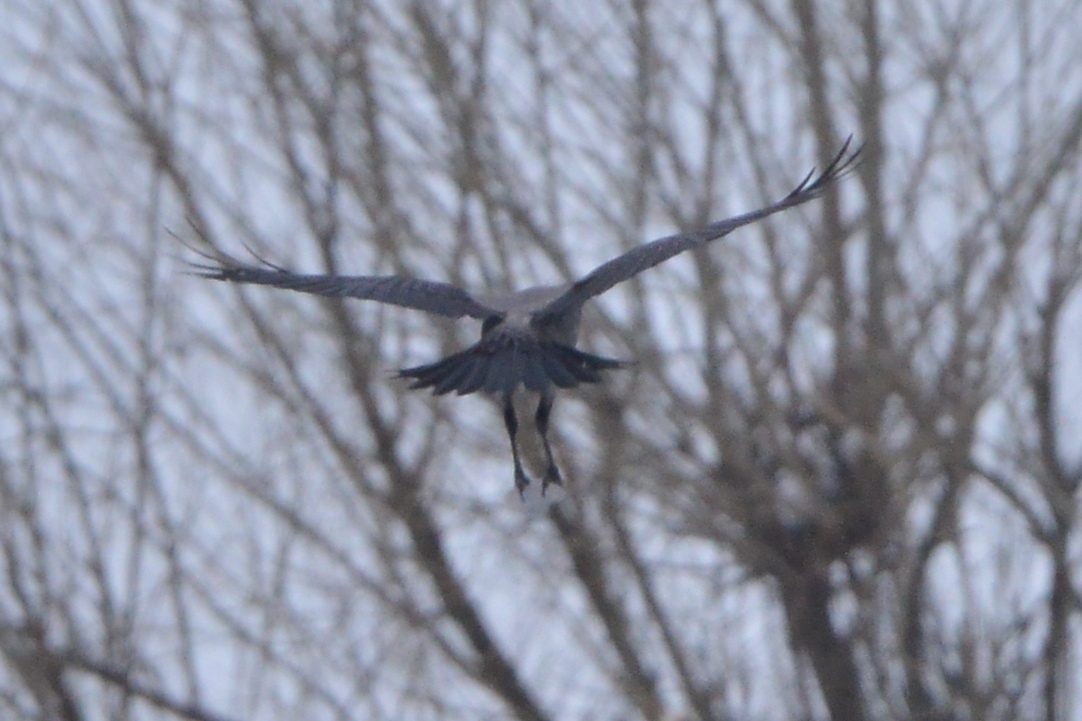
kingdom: Animalia
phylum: Chordata
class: Aves
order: Passeriformes
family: Corvidae
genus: Corvus
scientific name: Corvus cornix
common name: Hooded crow
